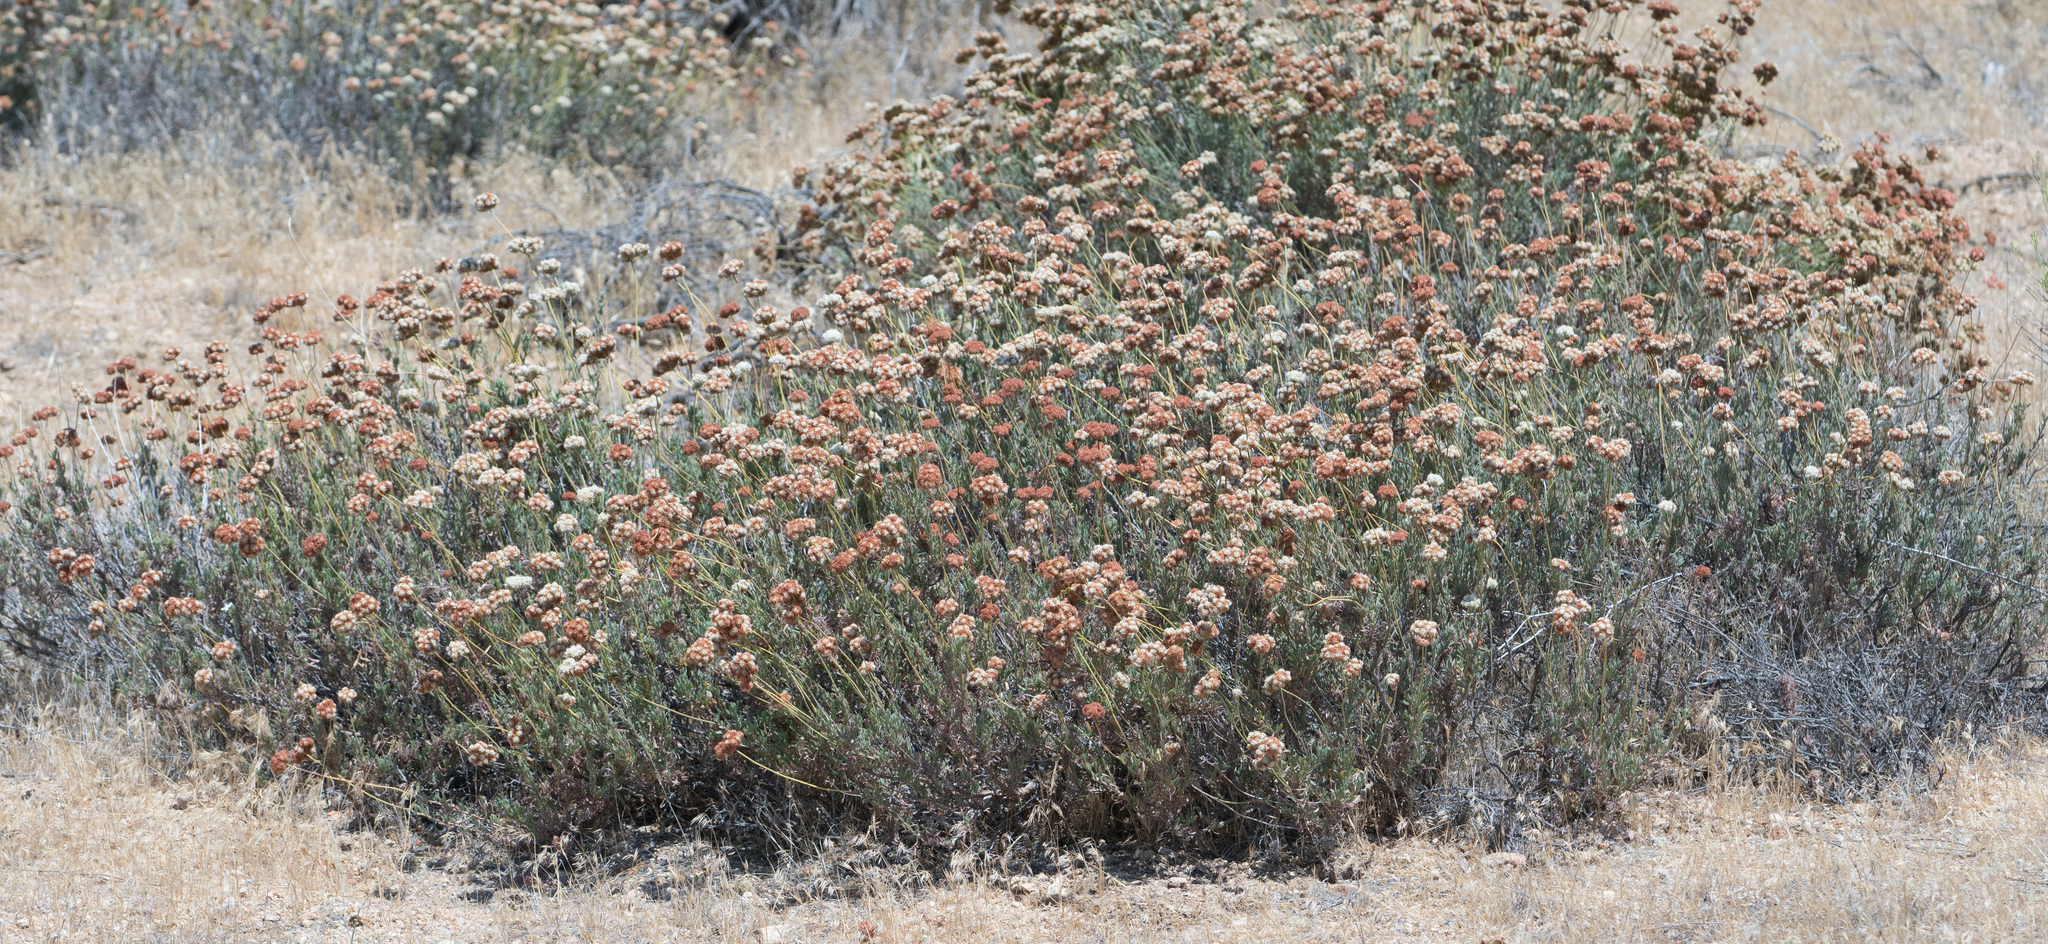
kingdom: Plantae
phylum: Tracheophyta
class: Magnoliopsida
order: Caryophyllales
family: Polygonaceae
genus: Eriogonum
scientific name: Eriogonum fasciculatum
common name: California wild buckwheat
